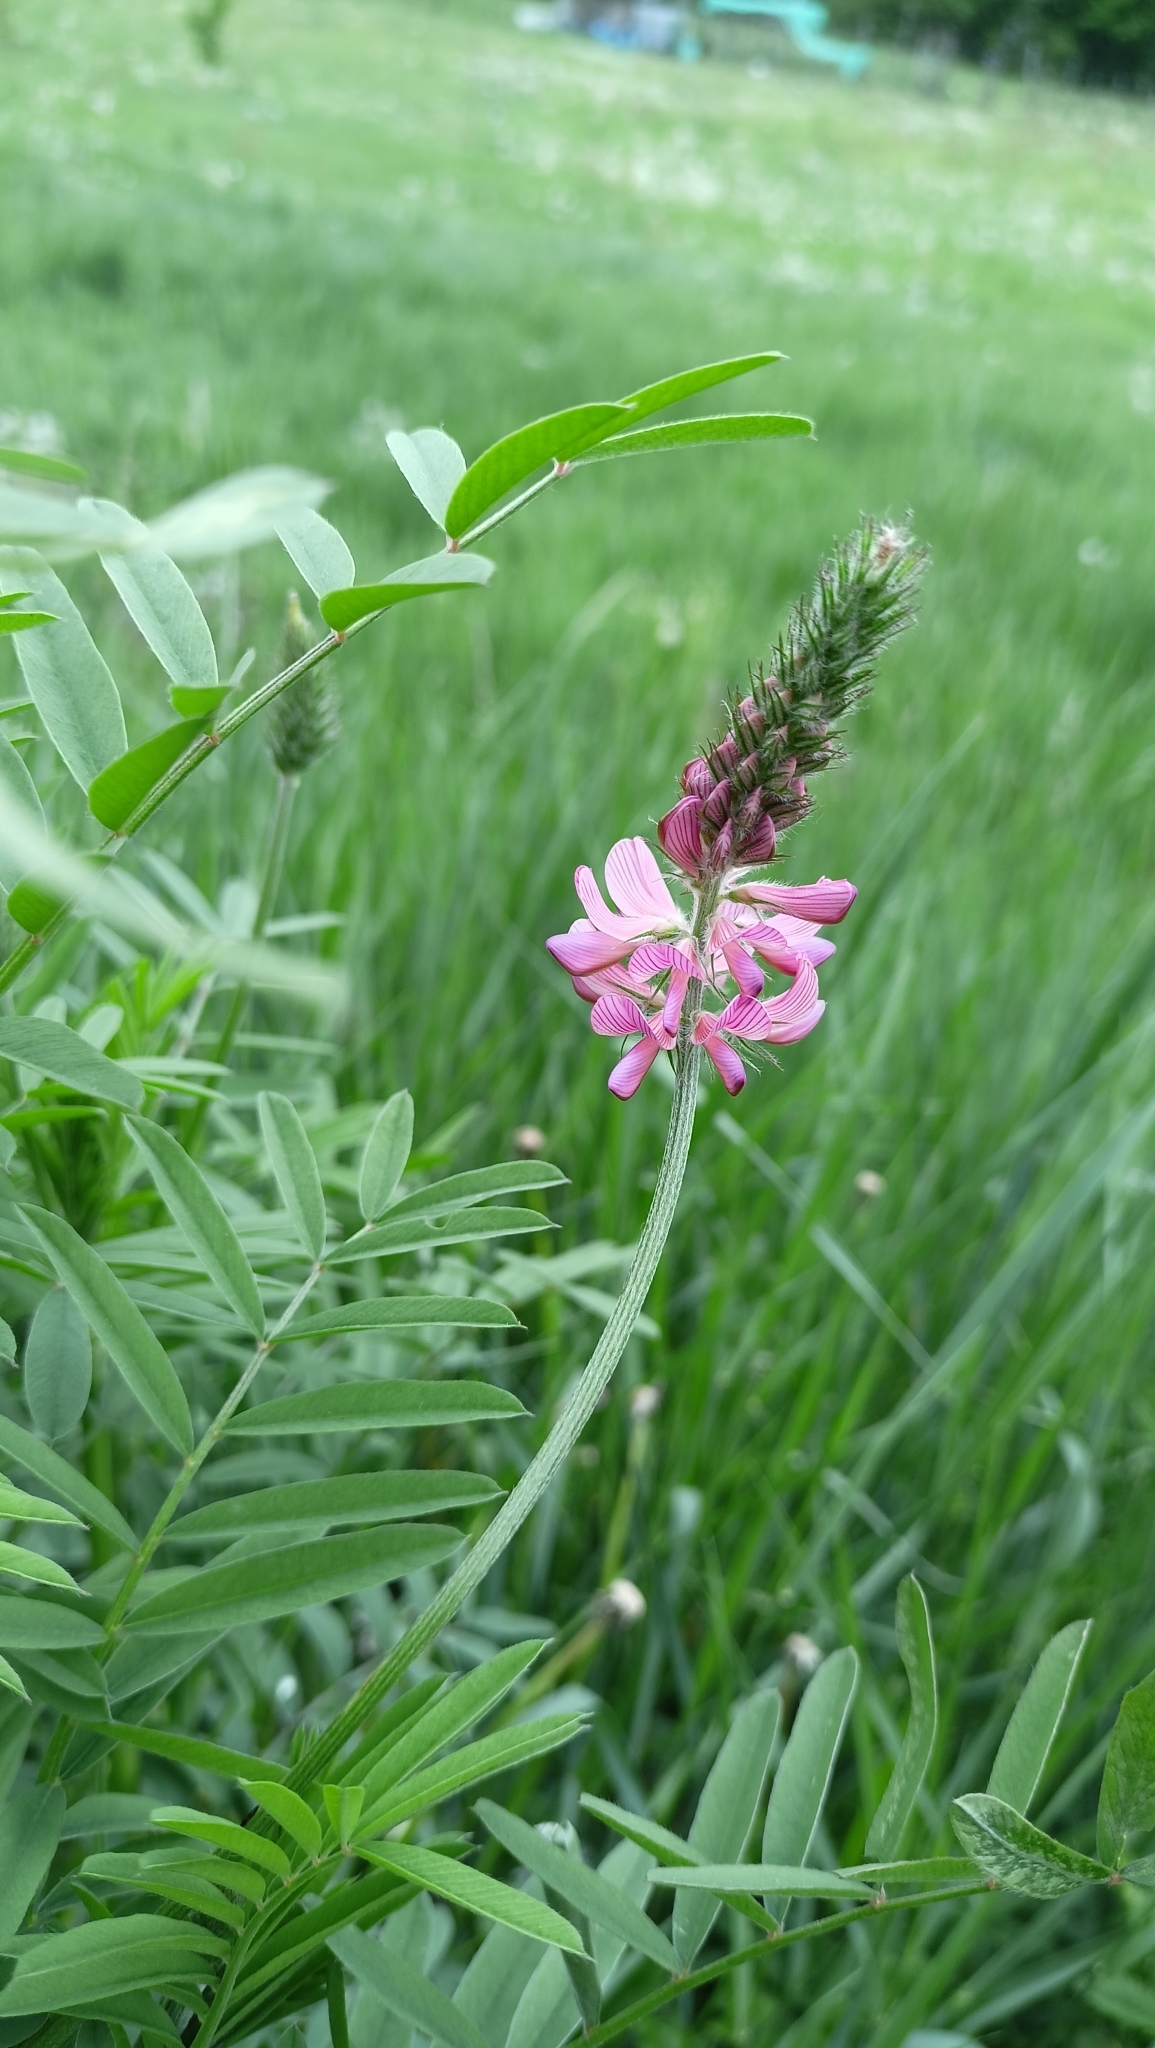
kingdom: Plantae
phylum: Tracheophyta
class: Magnoliopsida
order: Fabales
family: Fabaceae
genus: Onobrychis
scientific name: Onobrychis viciifolia
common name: Sainfoin
